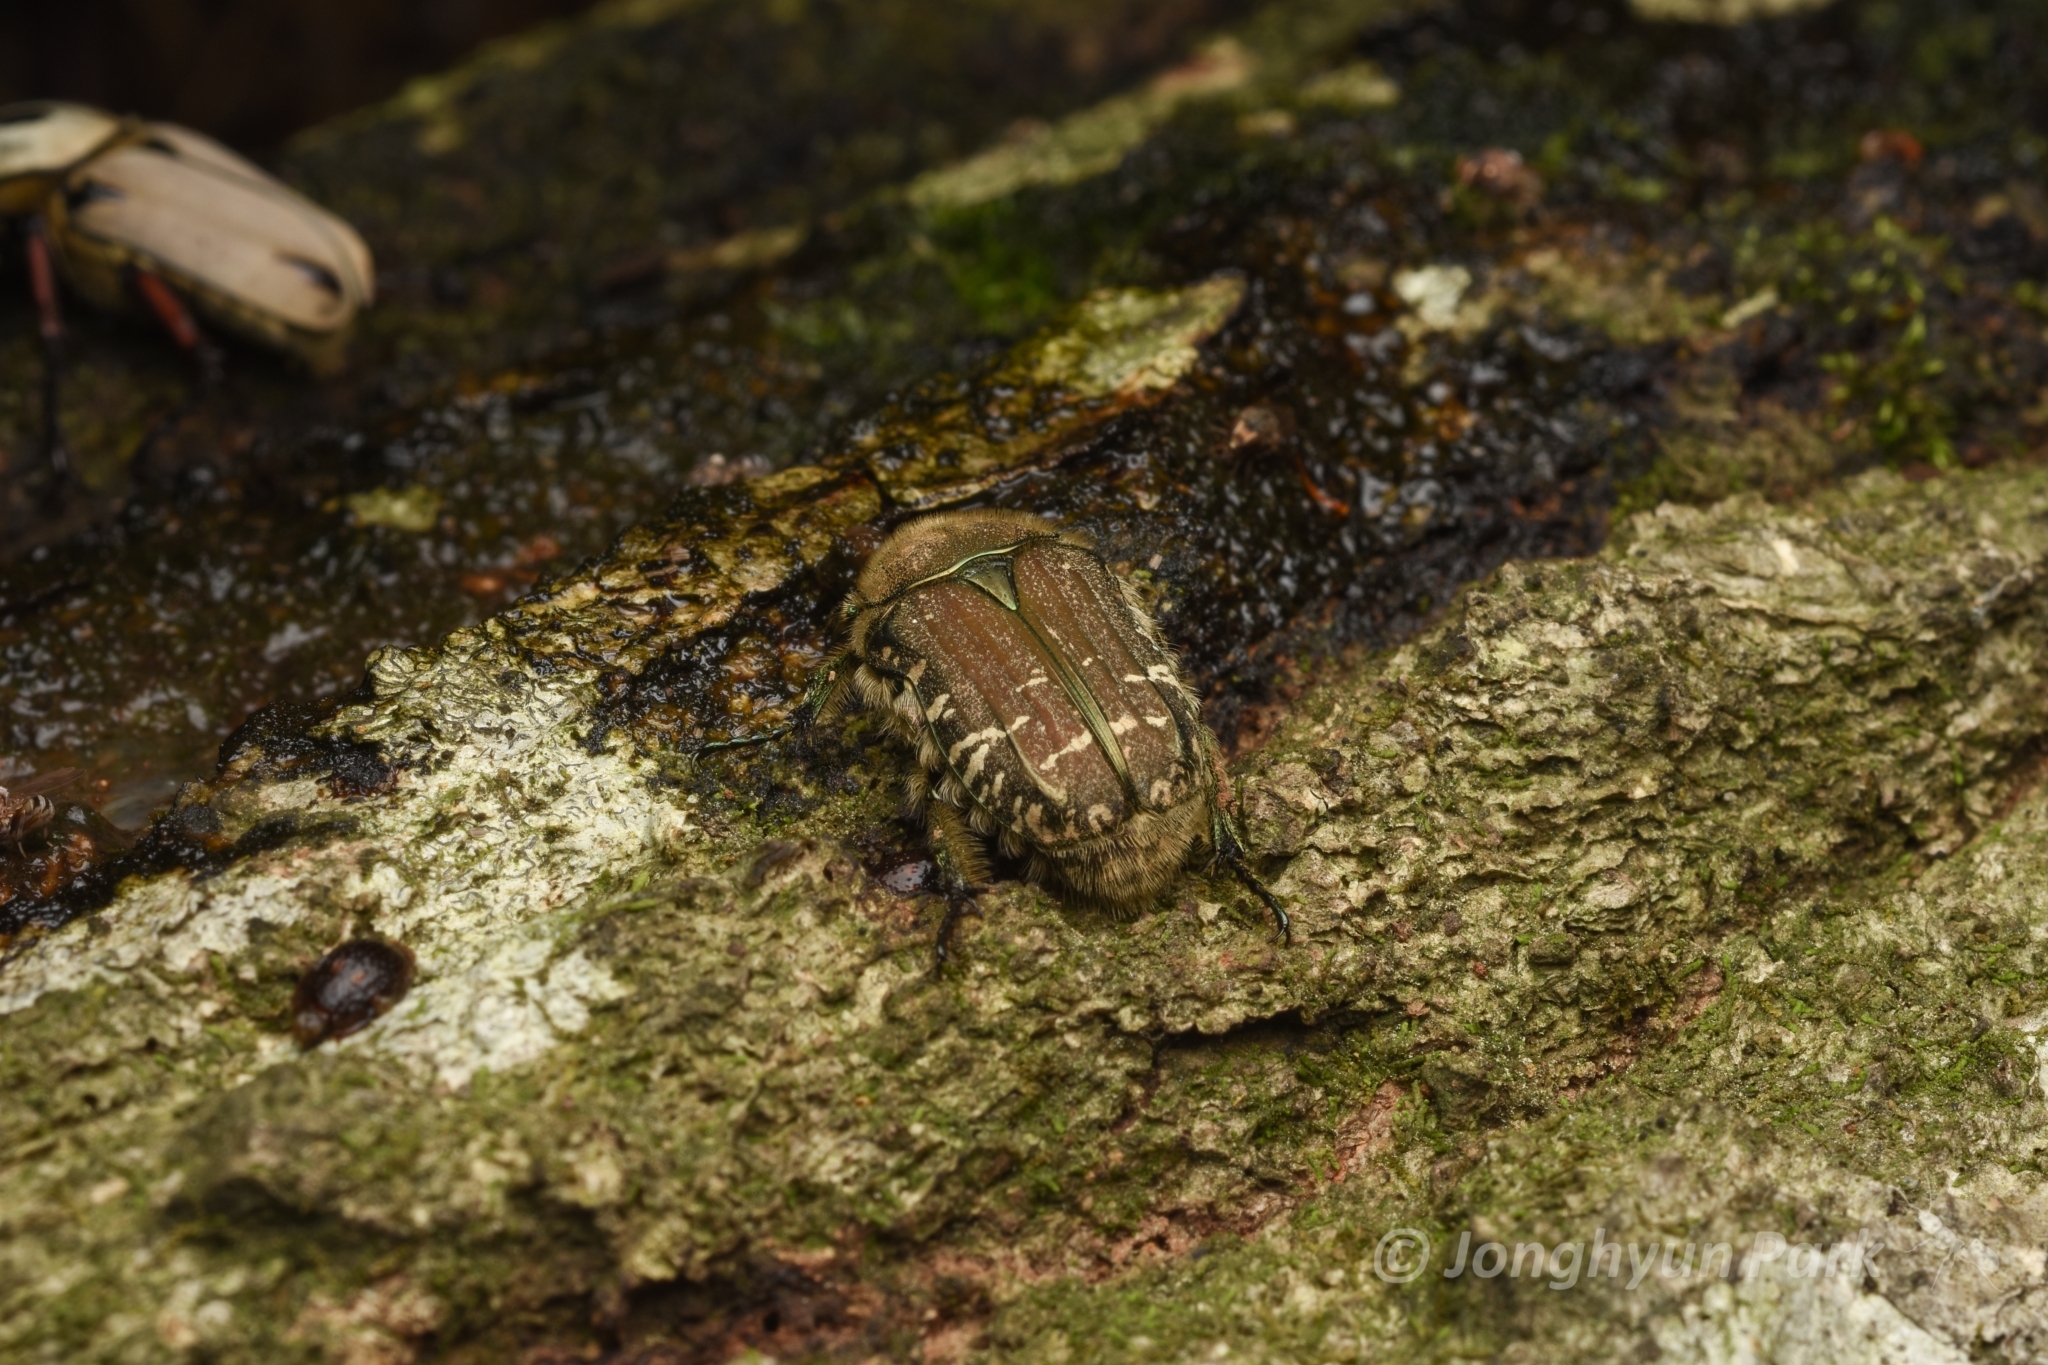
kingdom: Animalia
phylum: Arthropoda
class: Insecta
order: Coleoptera
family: Scarabaeidae
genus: Cetonia
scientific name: Cetonia pilifera
